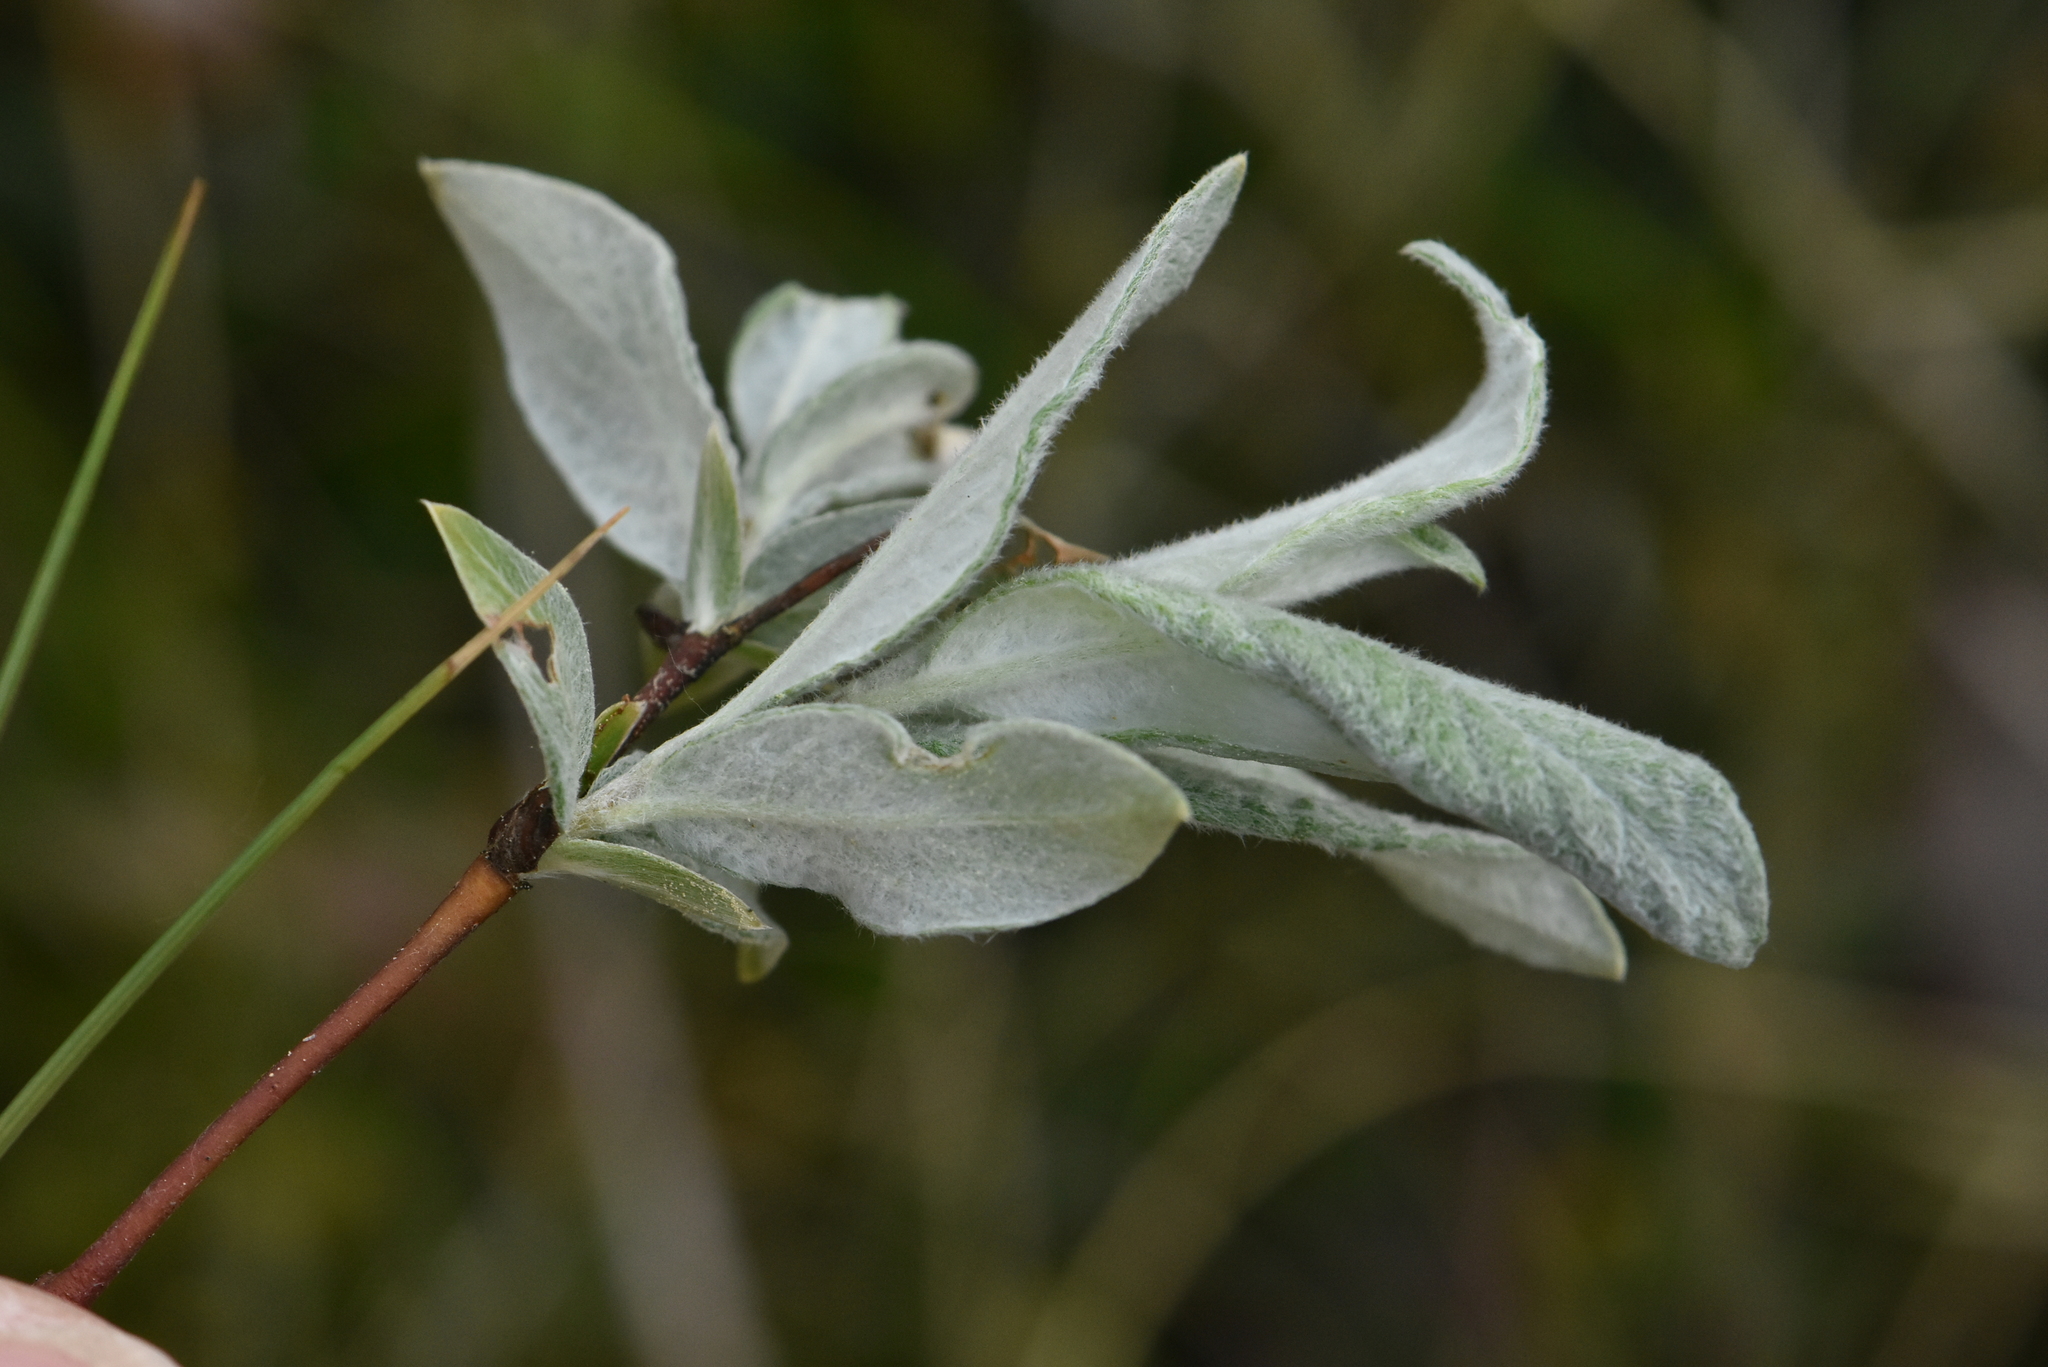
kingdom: Plantae
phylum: Tracheophyta
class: Magnoliopsida
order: Malpighiales
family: Salicaceae
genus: Salix
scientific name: Salix lapponum
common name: Downy willow
